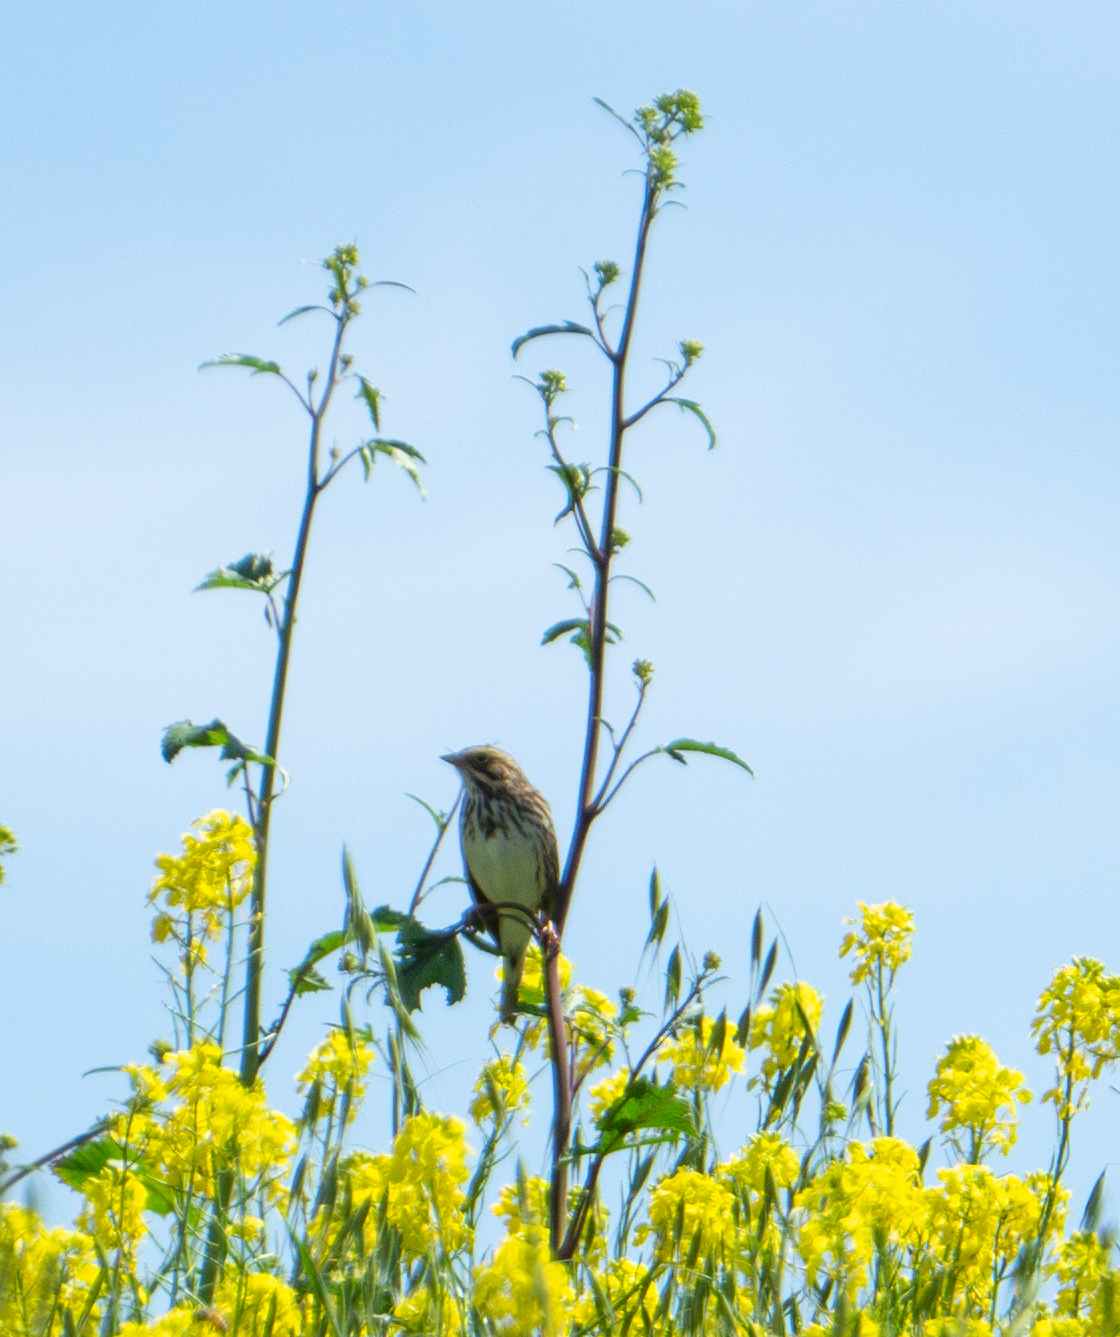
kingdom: Animalia
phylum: Chordata
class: Aves
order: Passeriformes
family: Passerellidae
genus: Passerculus
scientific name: Passerculus sandwichensis
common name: Savannah sparrow
